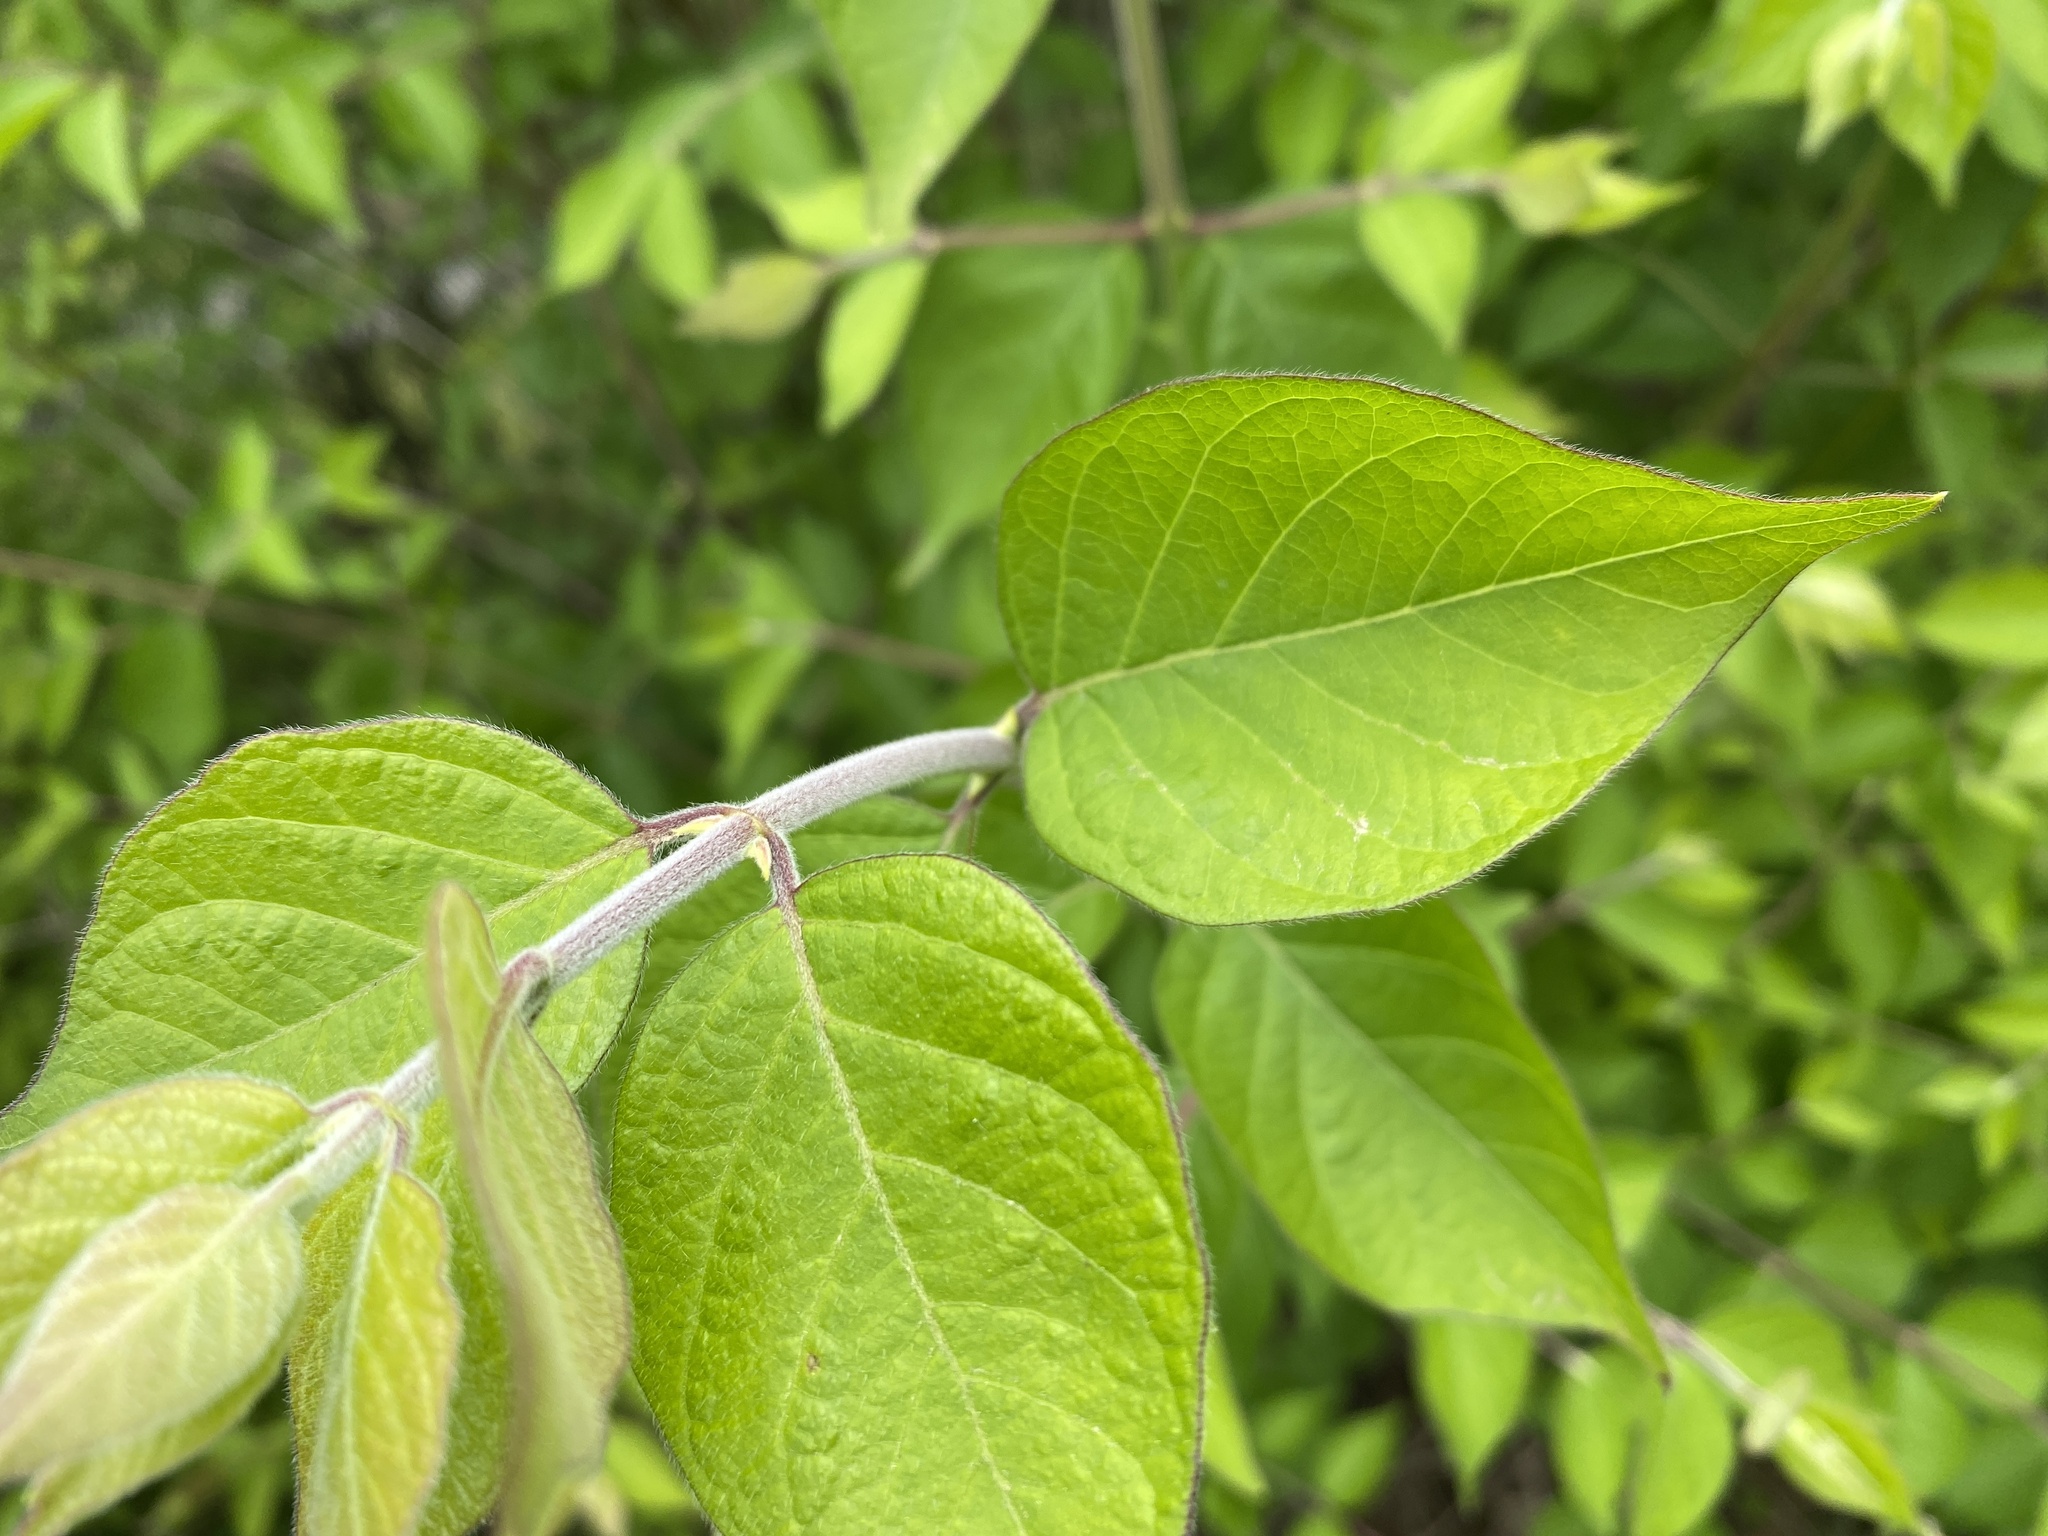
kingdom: Plantae
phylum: Tracheophyta
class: Magnoliopsida
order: Dipsacales
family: Caprifoliaceae
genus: Lonicera
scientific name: Lonicera maackii
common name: Amur honeysuckle
